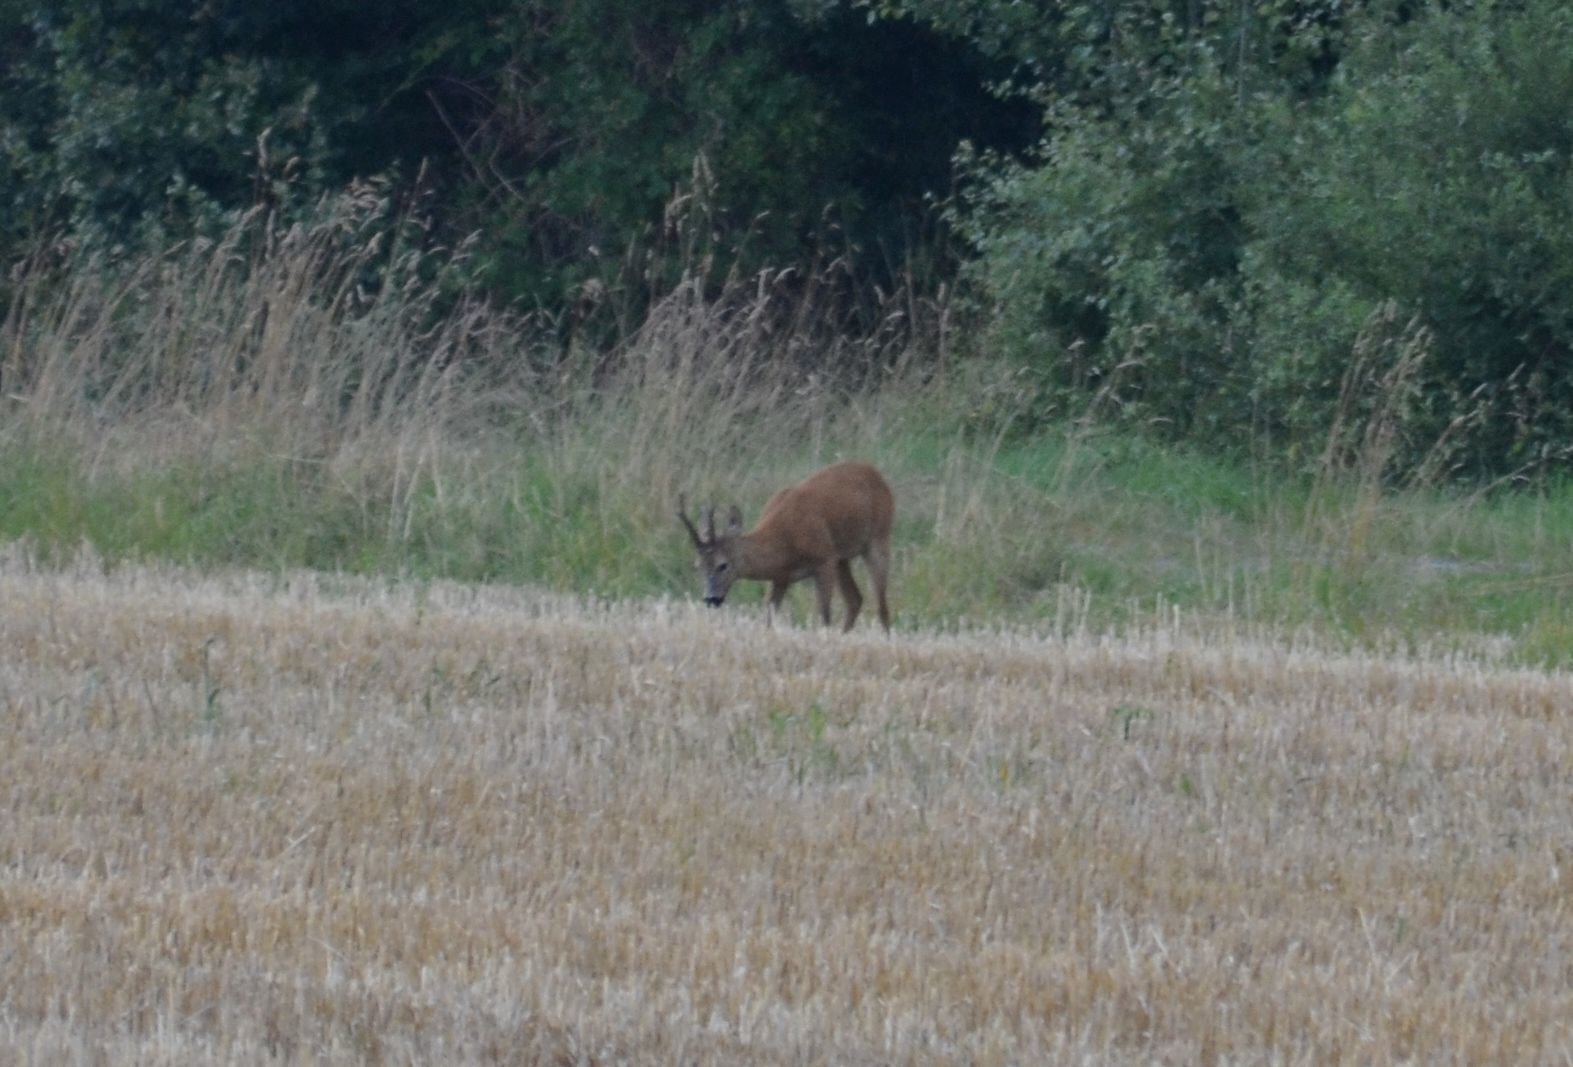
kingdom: Animalia
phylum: Chordata
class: Mammalia
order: Artiodactyla
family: Cervidae
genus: Capreolus
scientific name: Capreolus capreolus
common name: Western roe deer
